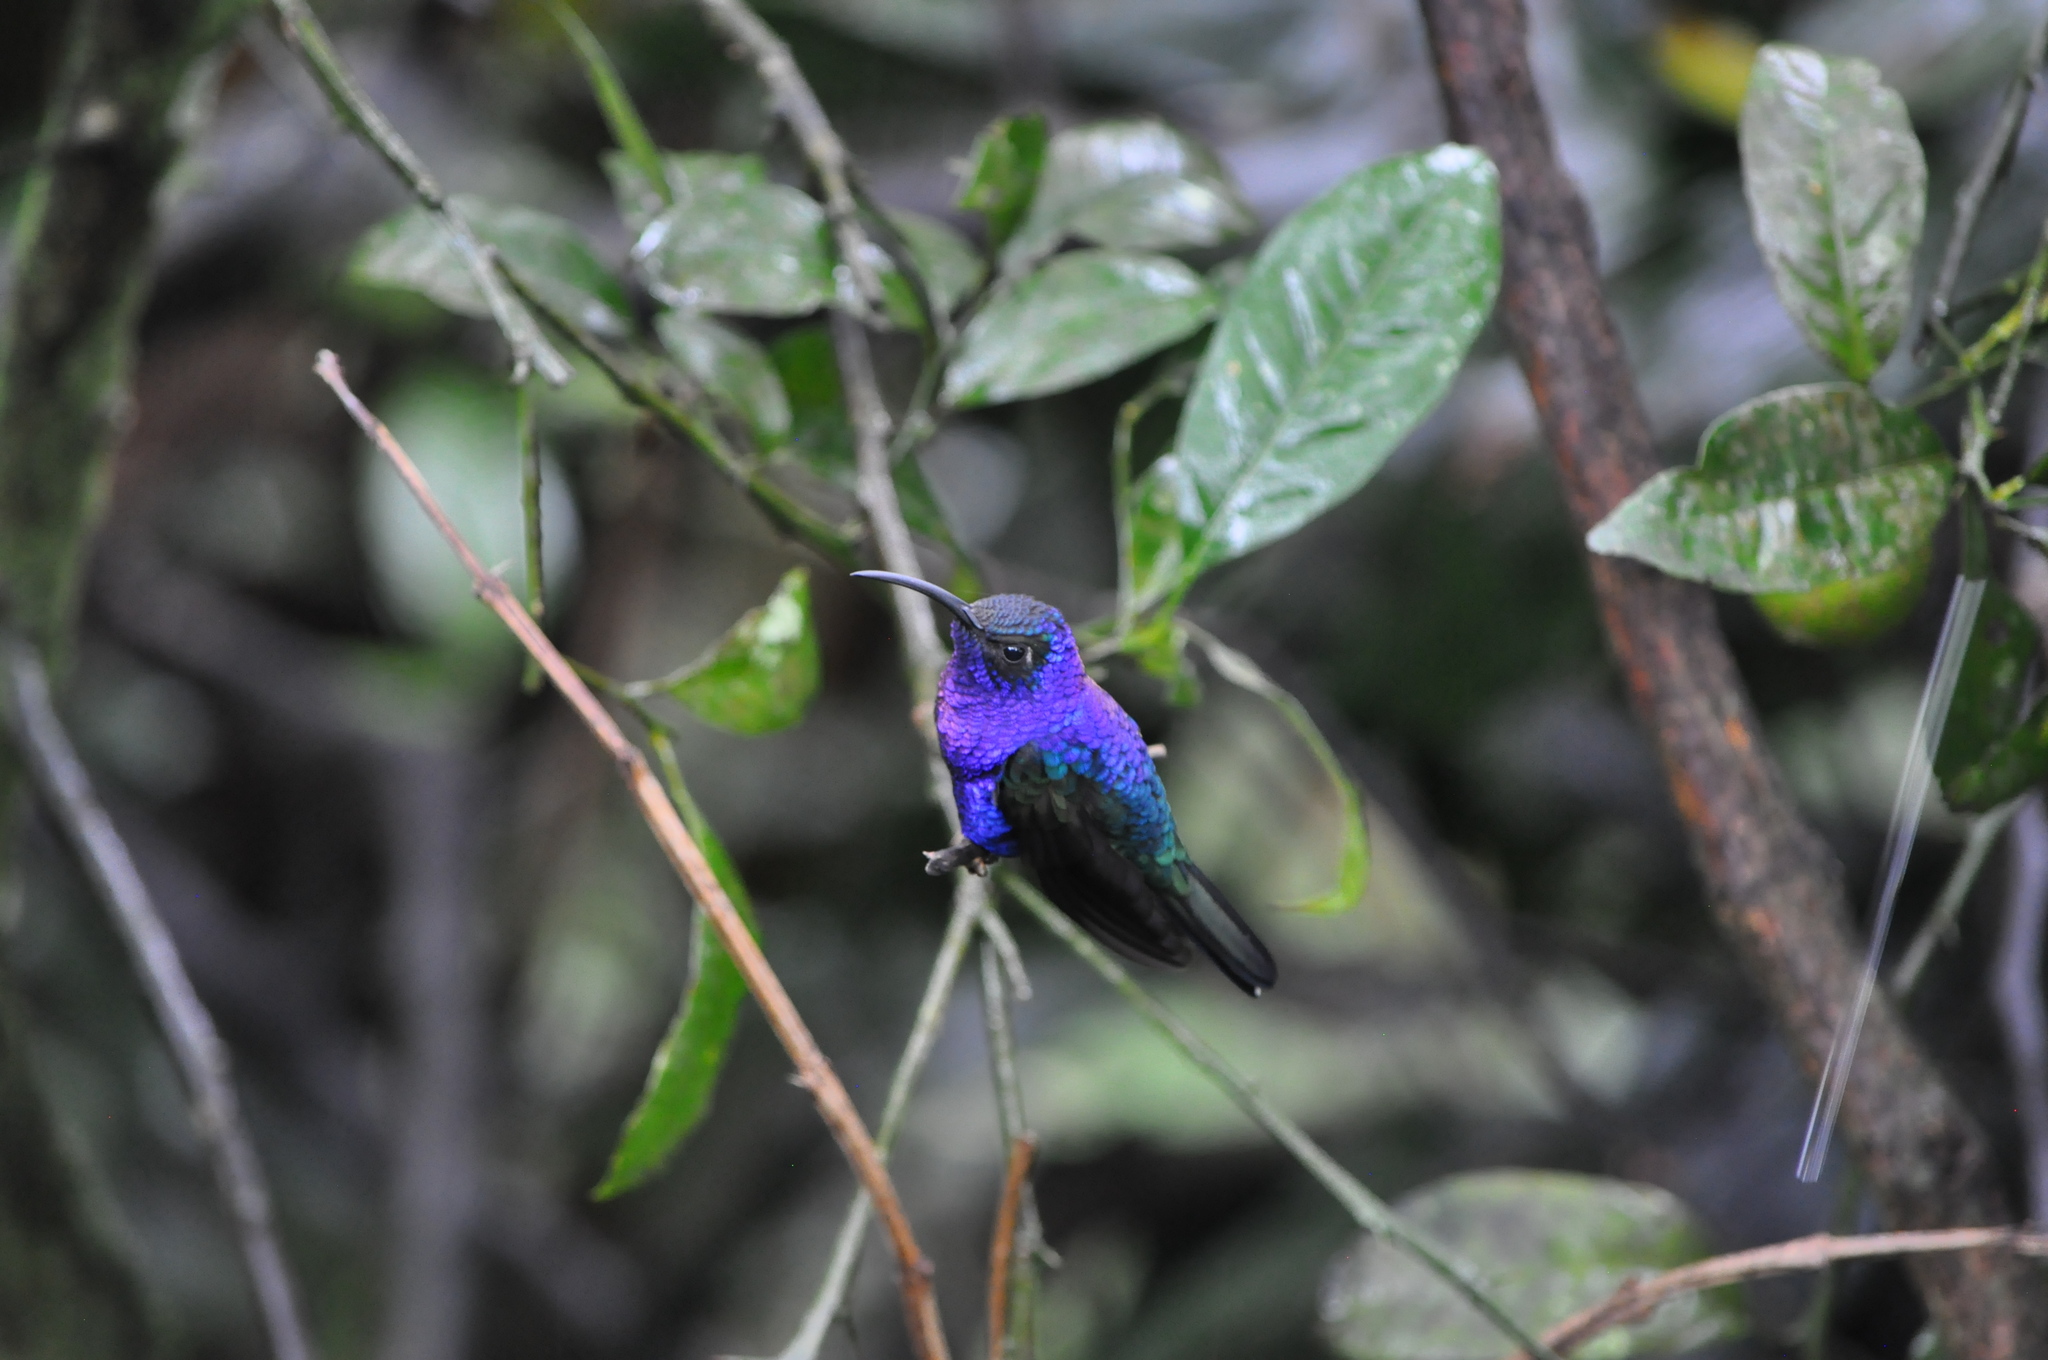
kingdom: Animalia
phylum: Chordata
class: Aves
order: Apodiformes
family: Trochilidae
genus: Campylopterus
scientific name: Campylopterus hemileucurus
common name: Violet sabrewing
